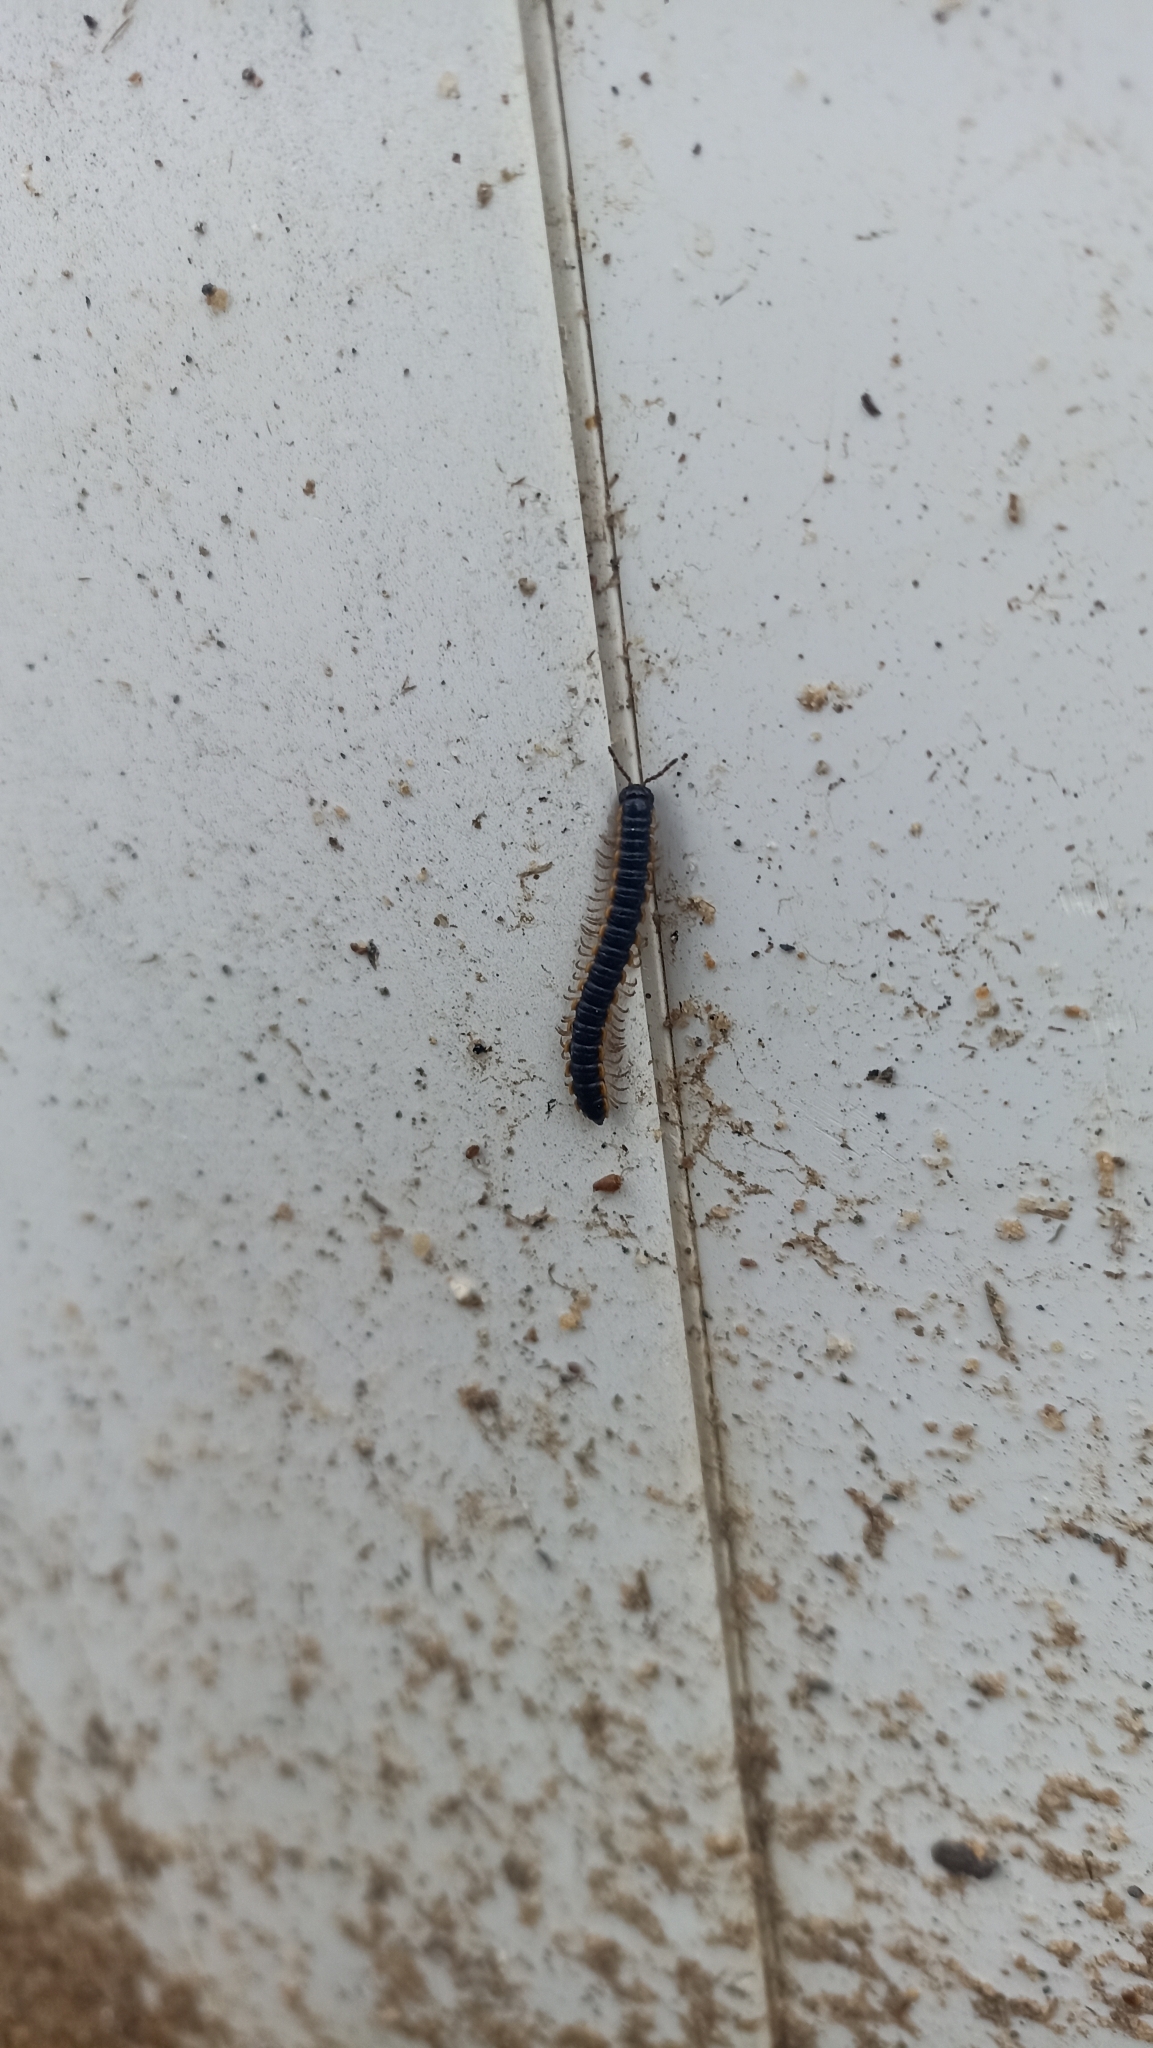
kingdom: Animalia
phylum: Arthropoda
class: Diplopoda
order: Polydesmida
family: Paradoxosomatidae
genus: Orthomorpha
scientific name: Orthomorpha coarctata
